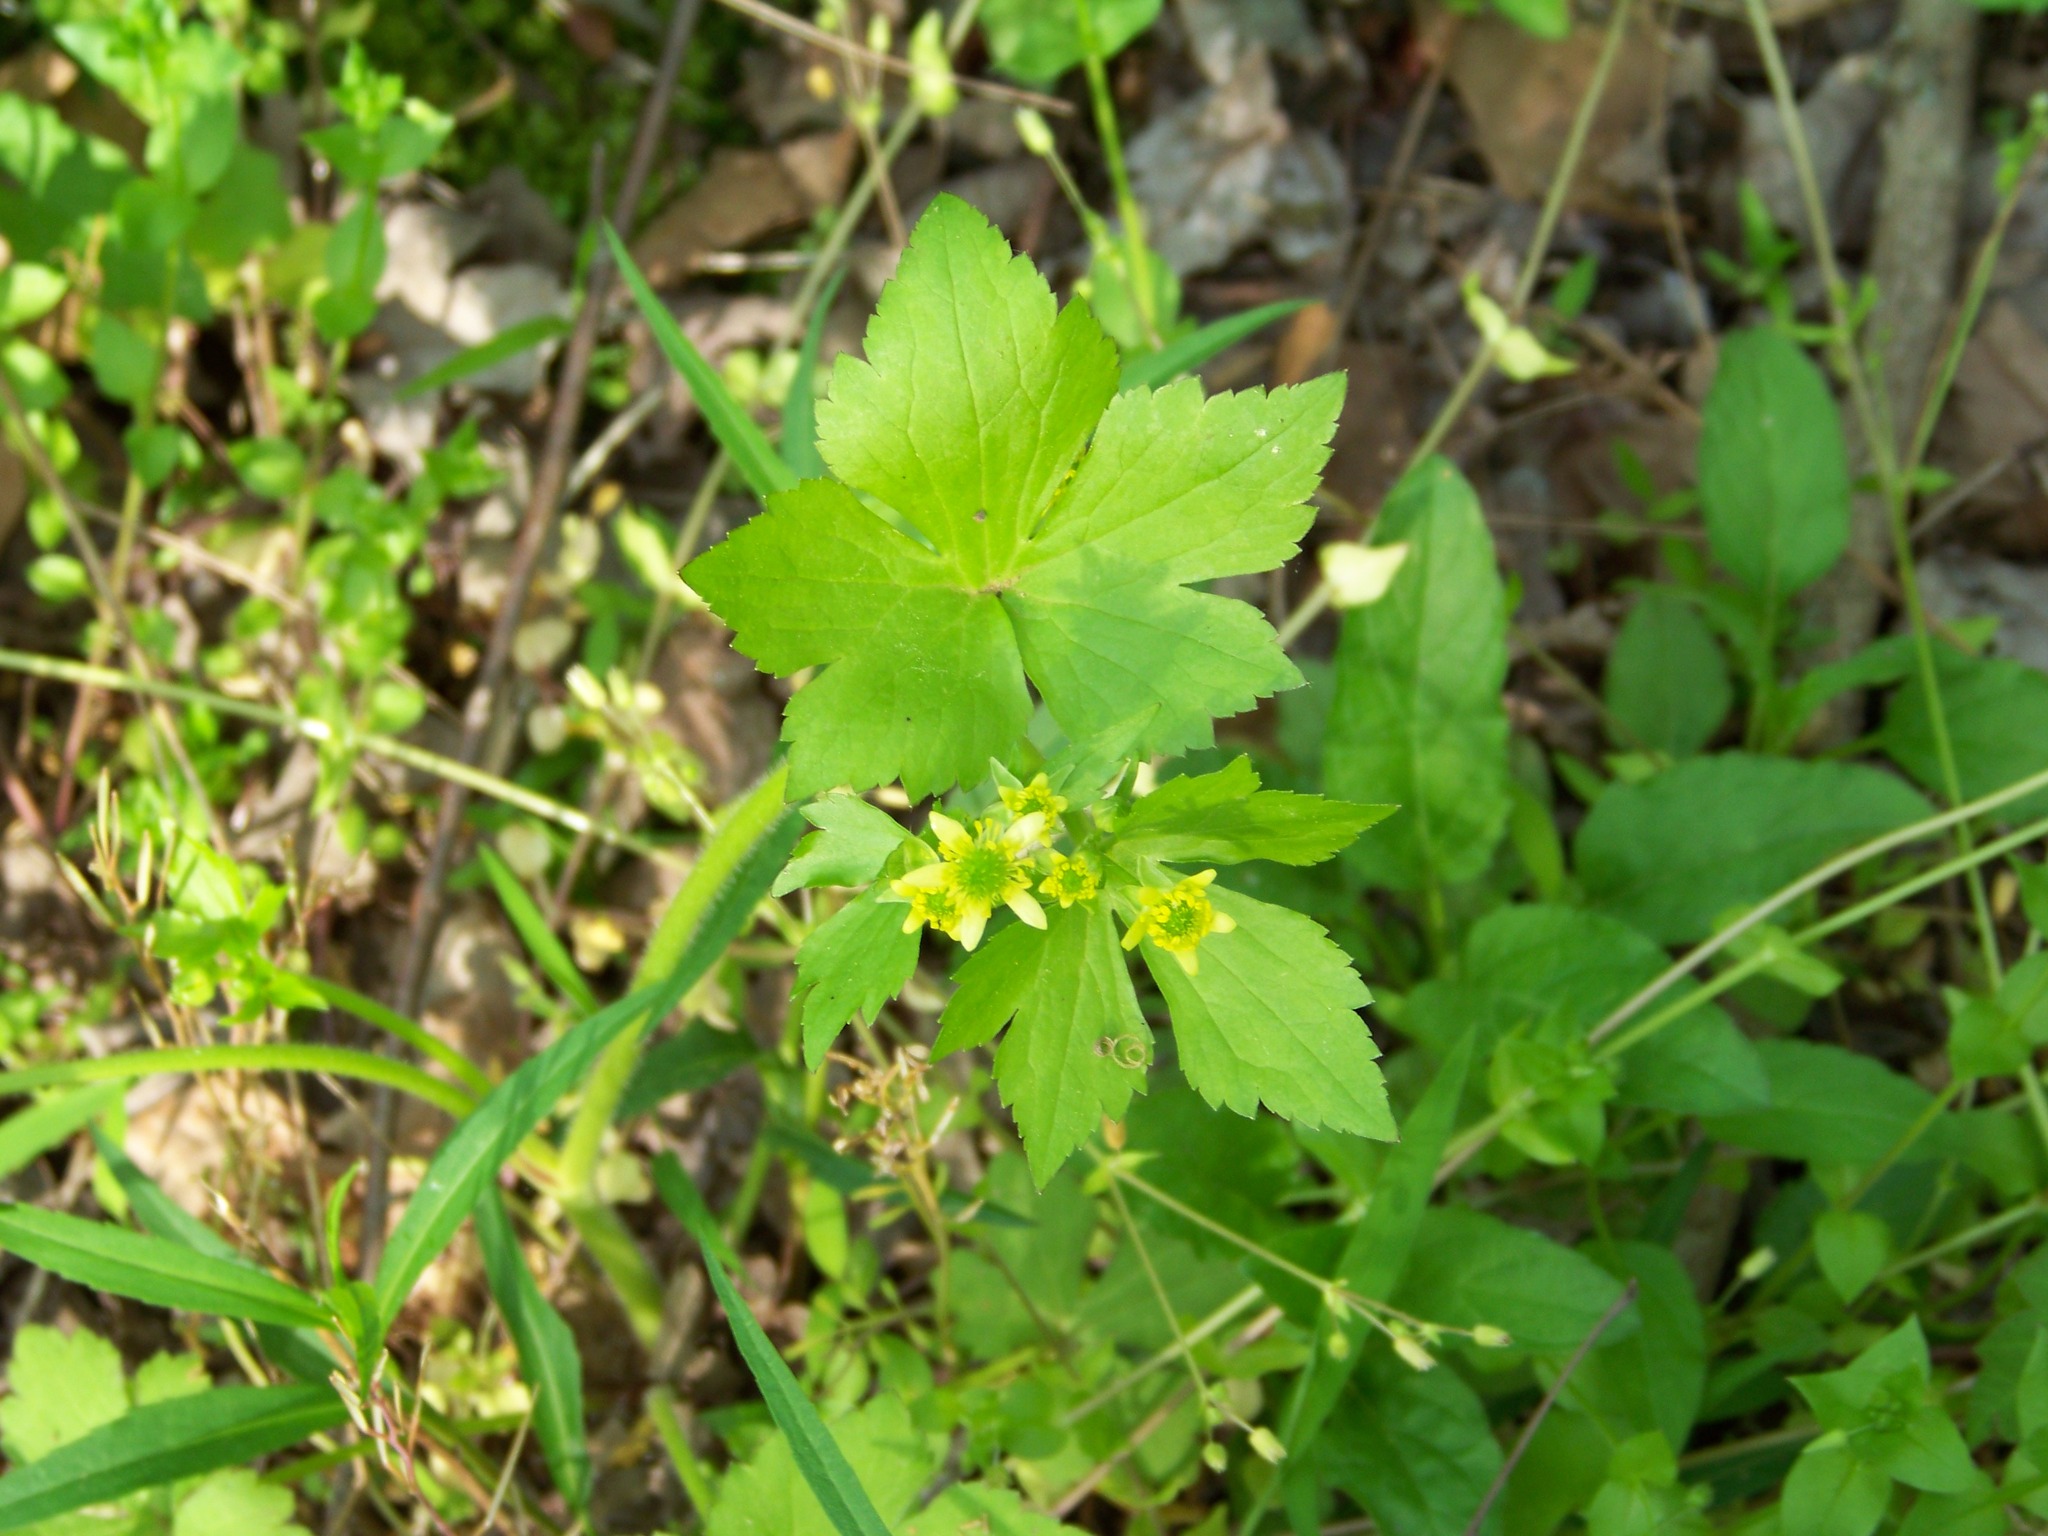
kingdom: Plantae
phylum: Tracheophyta
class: Magnoliopsida
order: Ranunculales
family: Ranunculaceae
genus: Ranunculus
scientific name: Ranunculus recurvatus
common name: Blisterwort
